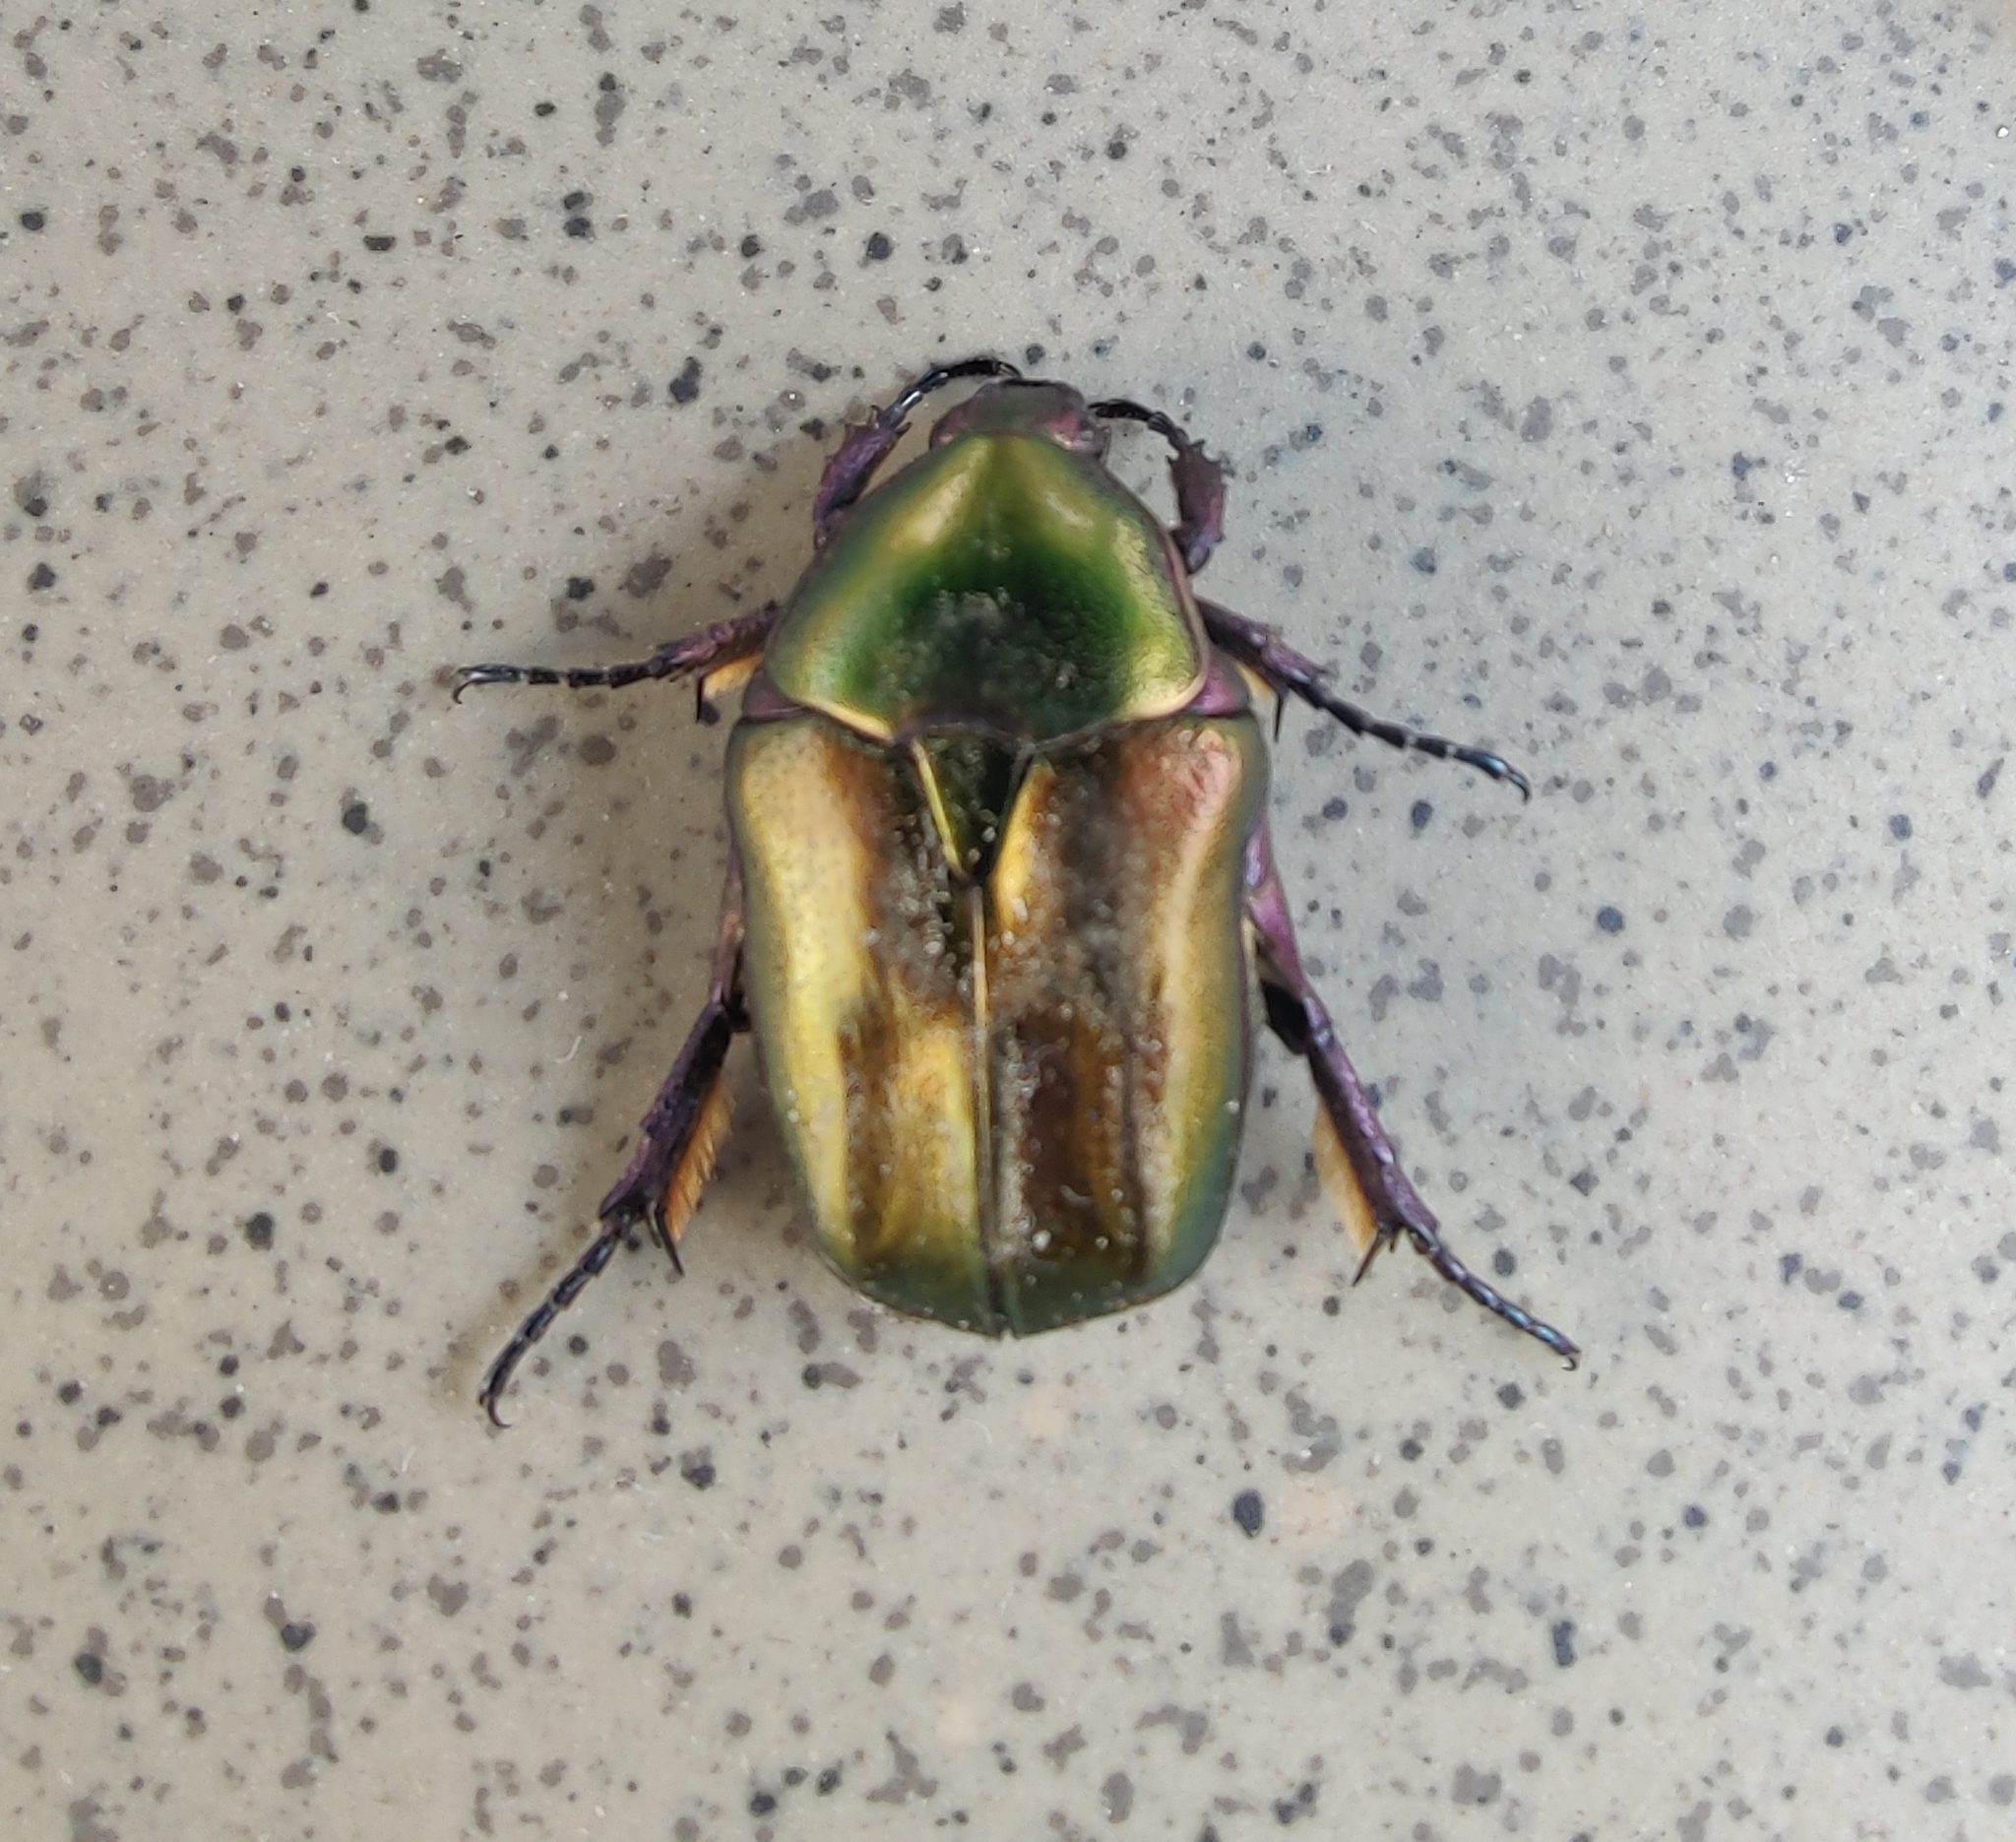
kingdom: Animalia
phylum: Arthropoda
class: Insecta
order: Coleoptera
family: Scarabaeidae
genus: Protaetia
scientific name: Protaetia cuprea
